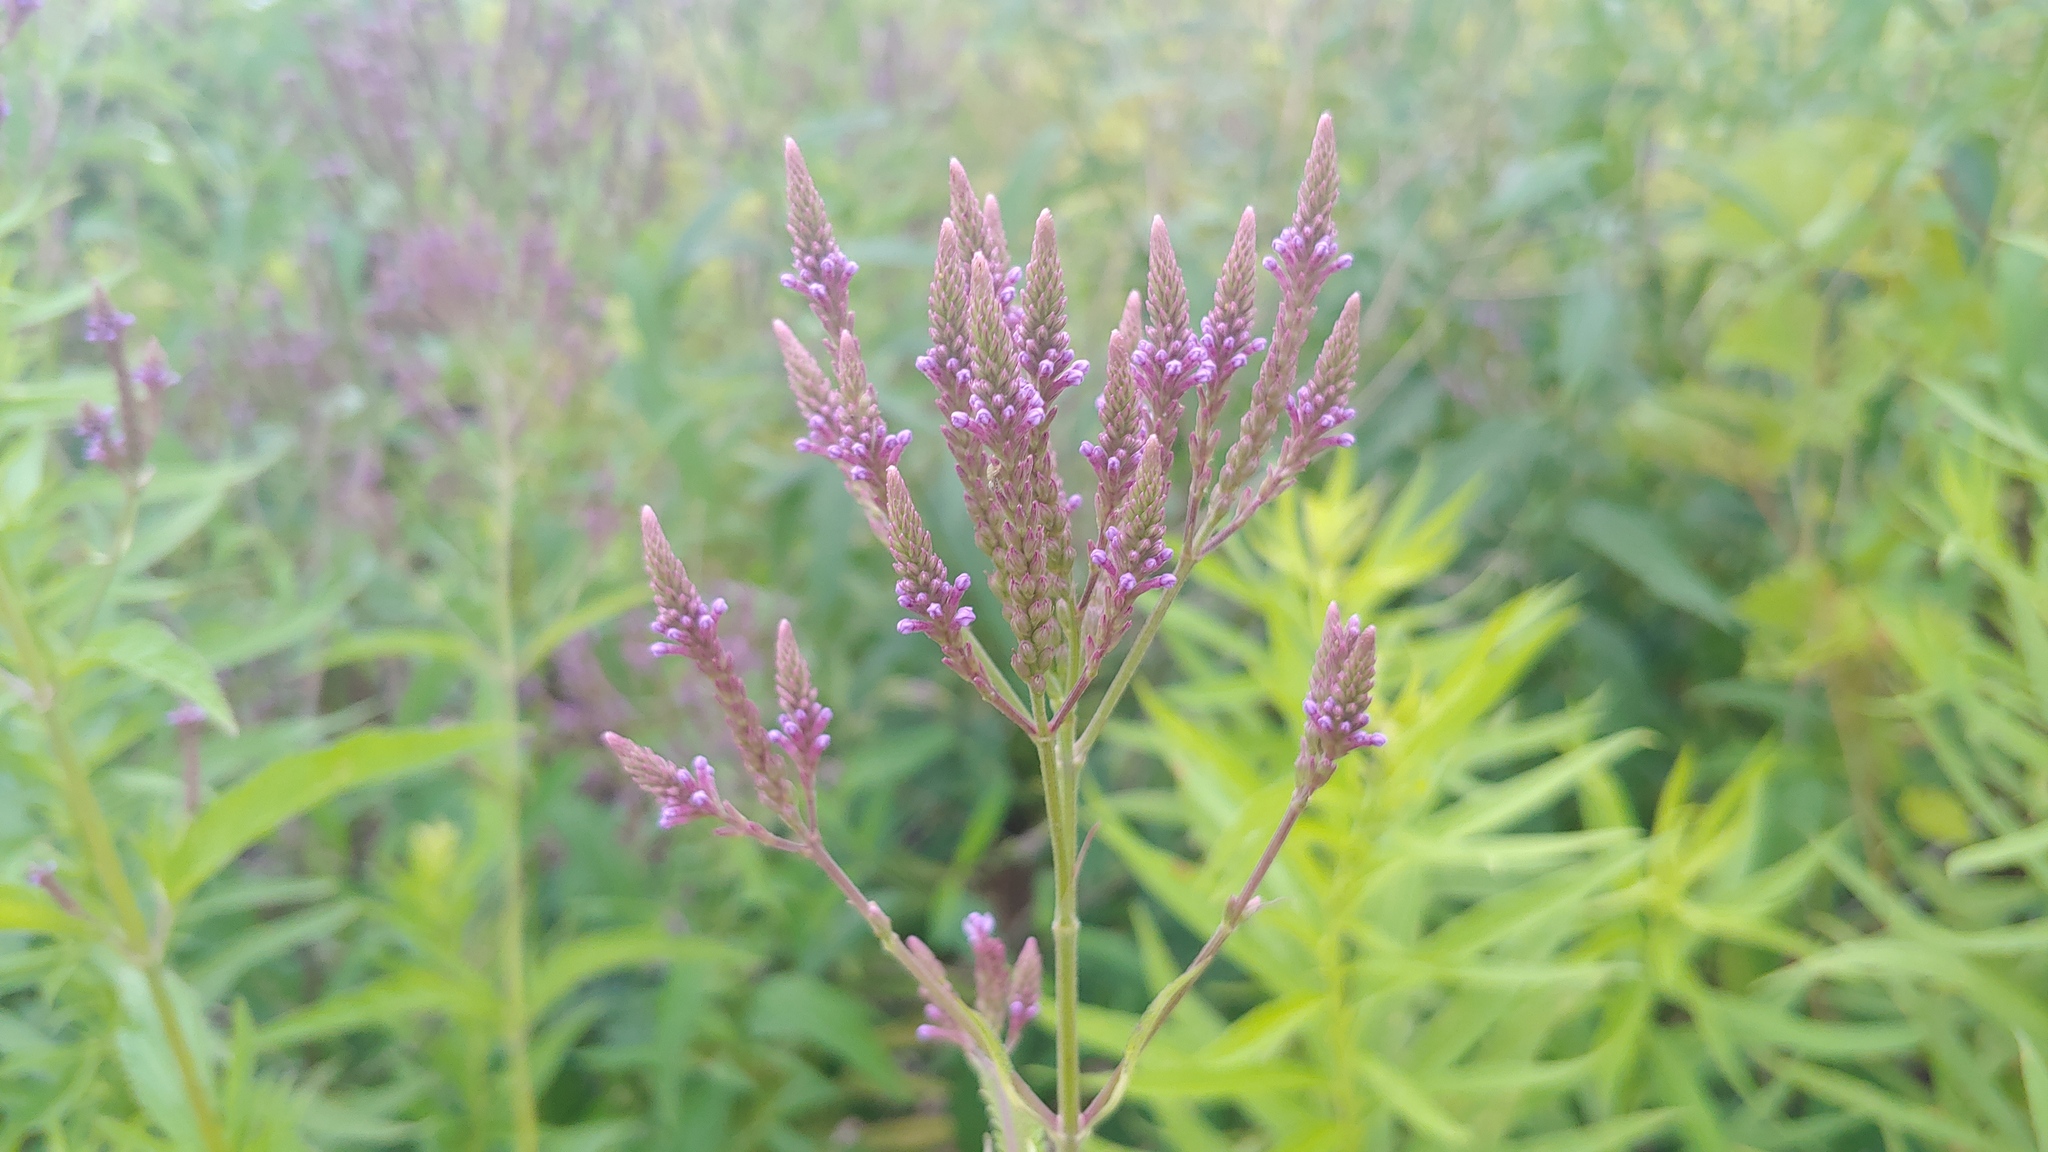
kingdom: Plantae
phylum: Tracheophyta
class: Magnoliopsida
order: Lamiales
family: Verbenaceae
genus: Verbena
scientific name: Verbena hastata
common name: American blue vervain
